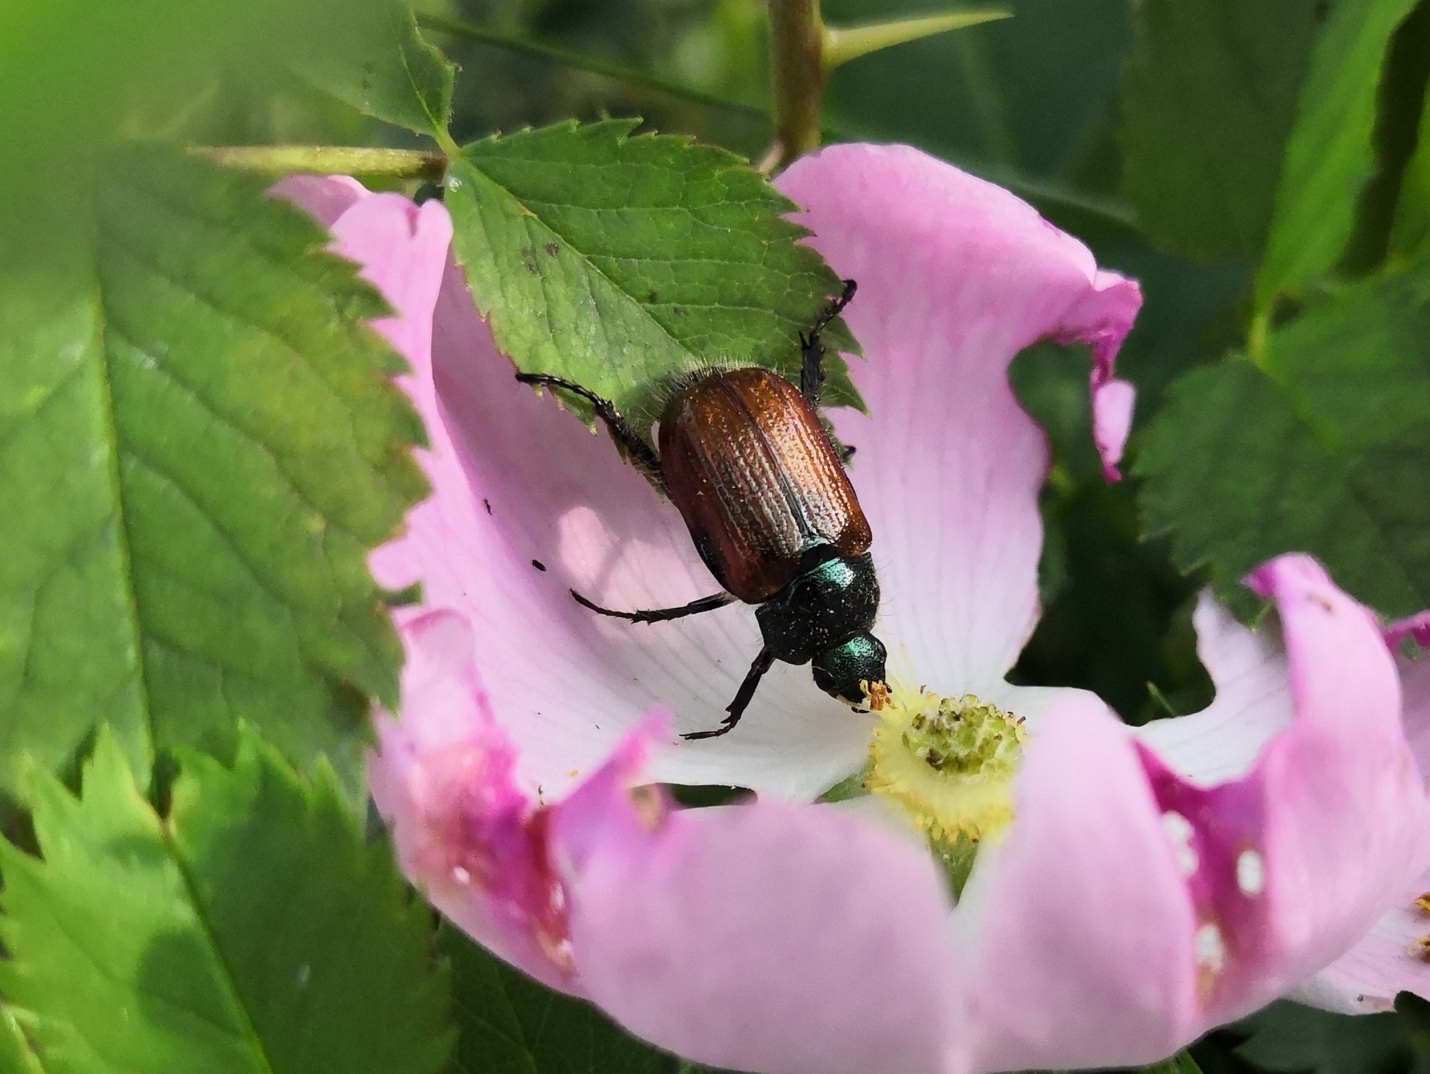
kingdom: Animalia
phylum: Arthropoda
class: Insecta
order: Coleoptera
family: Scarabaeidae
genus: Phyllopertha
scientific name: Phyllopertha horticola
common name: Garden chafer
